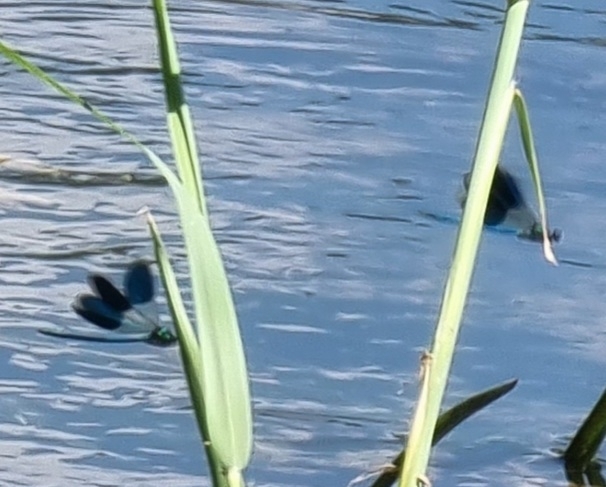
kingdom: Animalia
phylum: Arthropoda
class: Insecta
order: Odonata
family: Calopterygidae
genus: Calopteryx
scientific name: Calopteryx splendens
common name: Banded demoiselle
